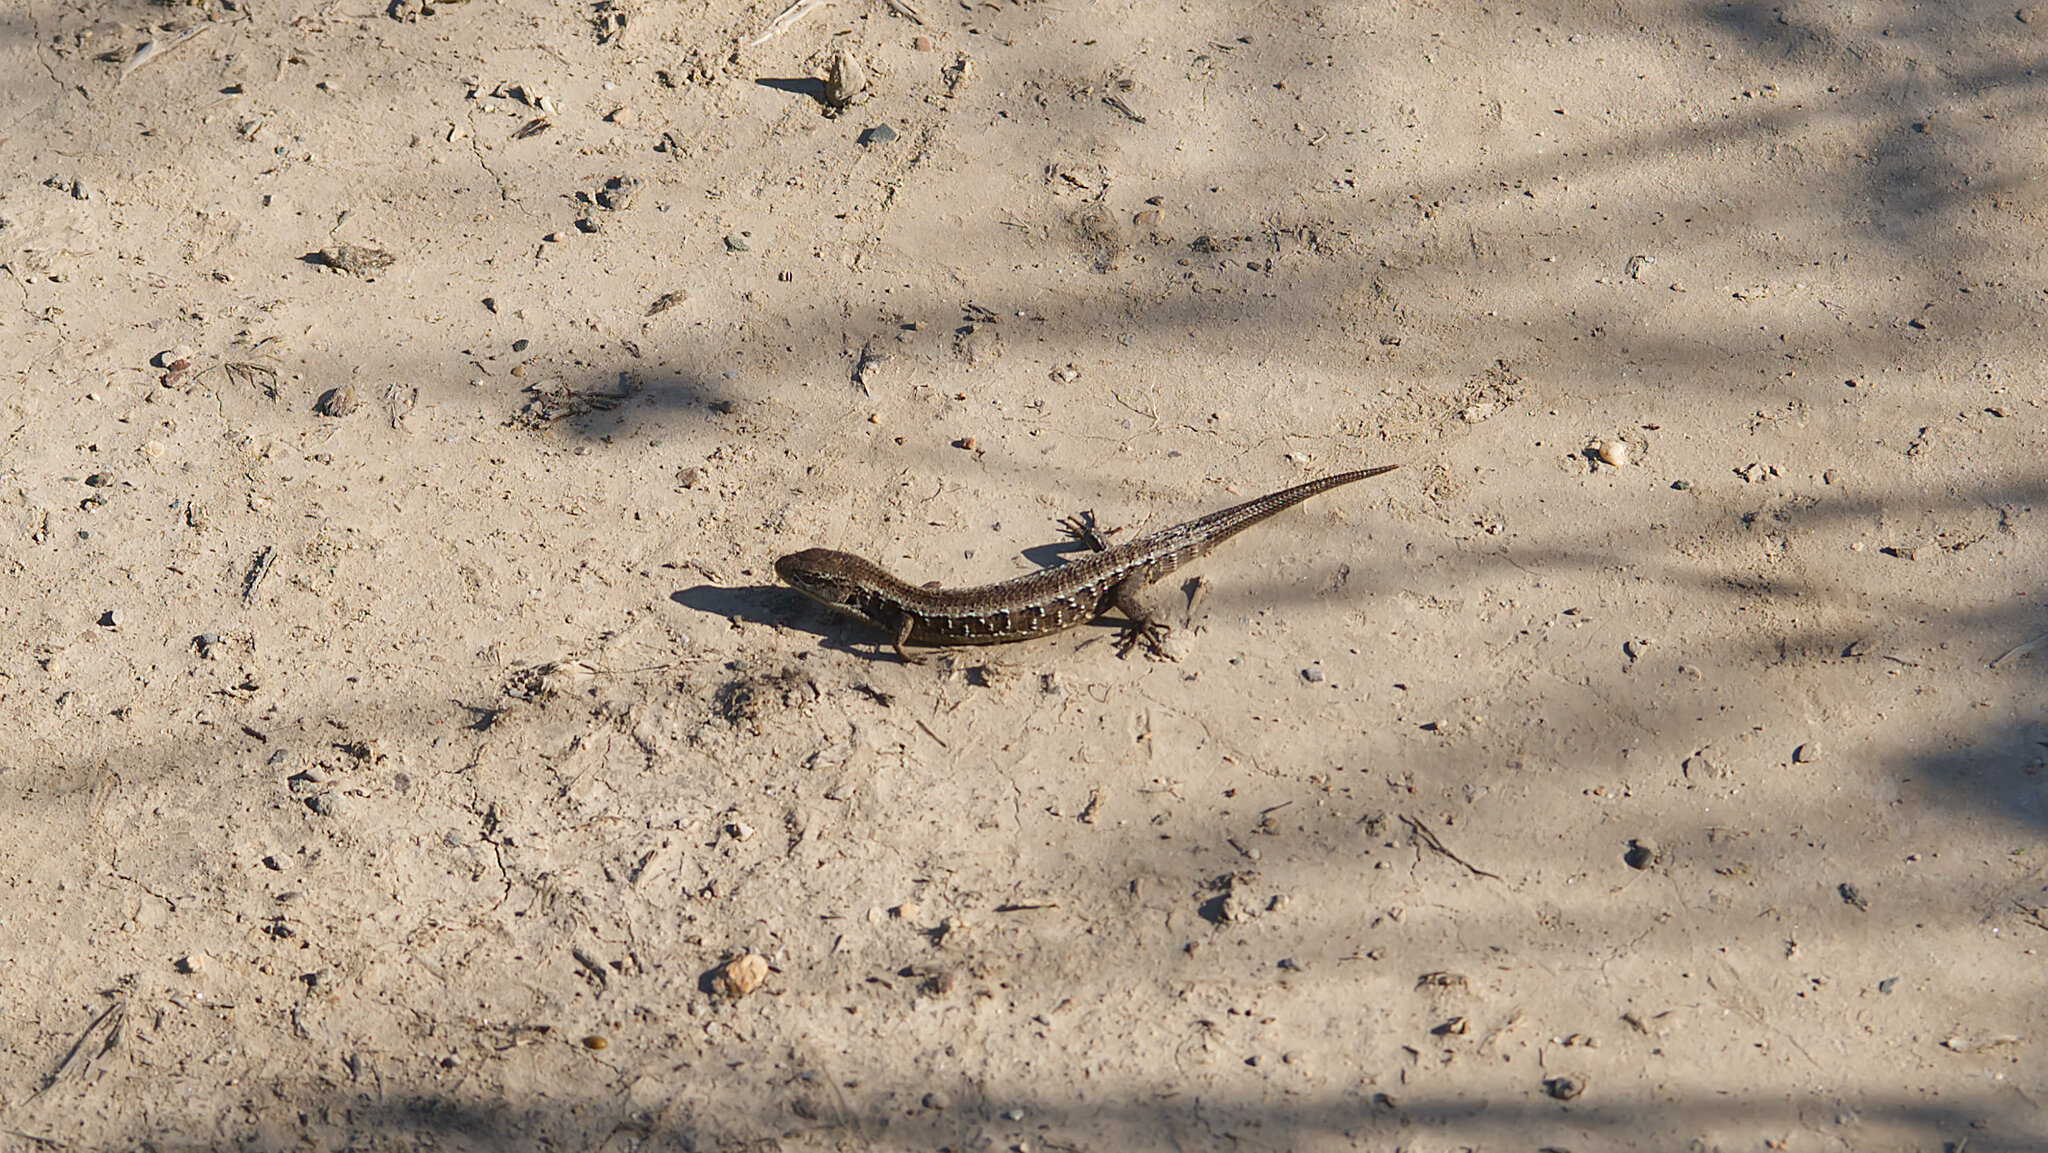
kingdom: Animalia
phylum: Chordata
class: Squamata
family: Anguidae
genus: Elgaria
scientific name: Elgaria coerulea
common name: Northern alligator lizard
